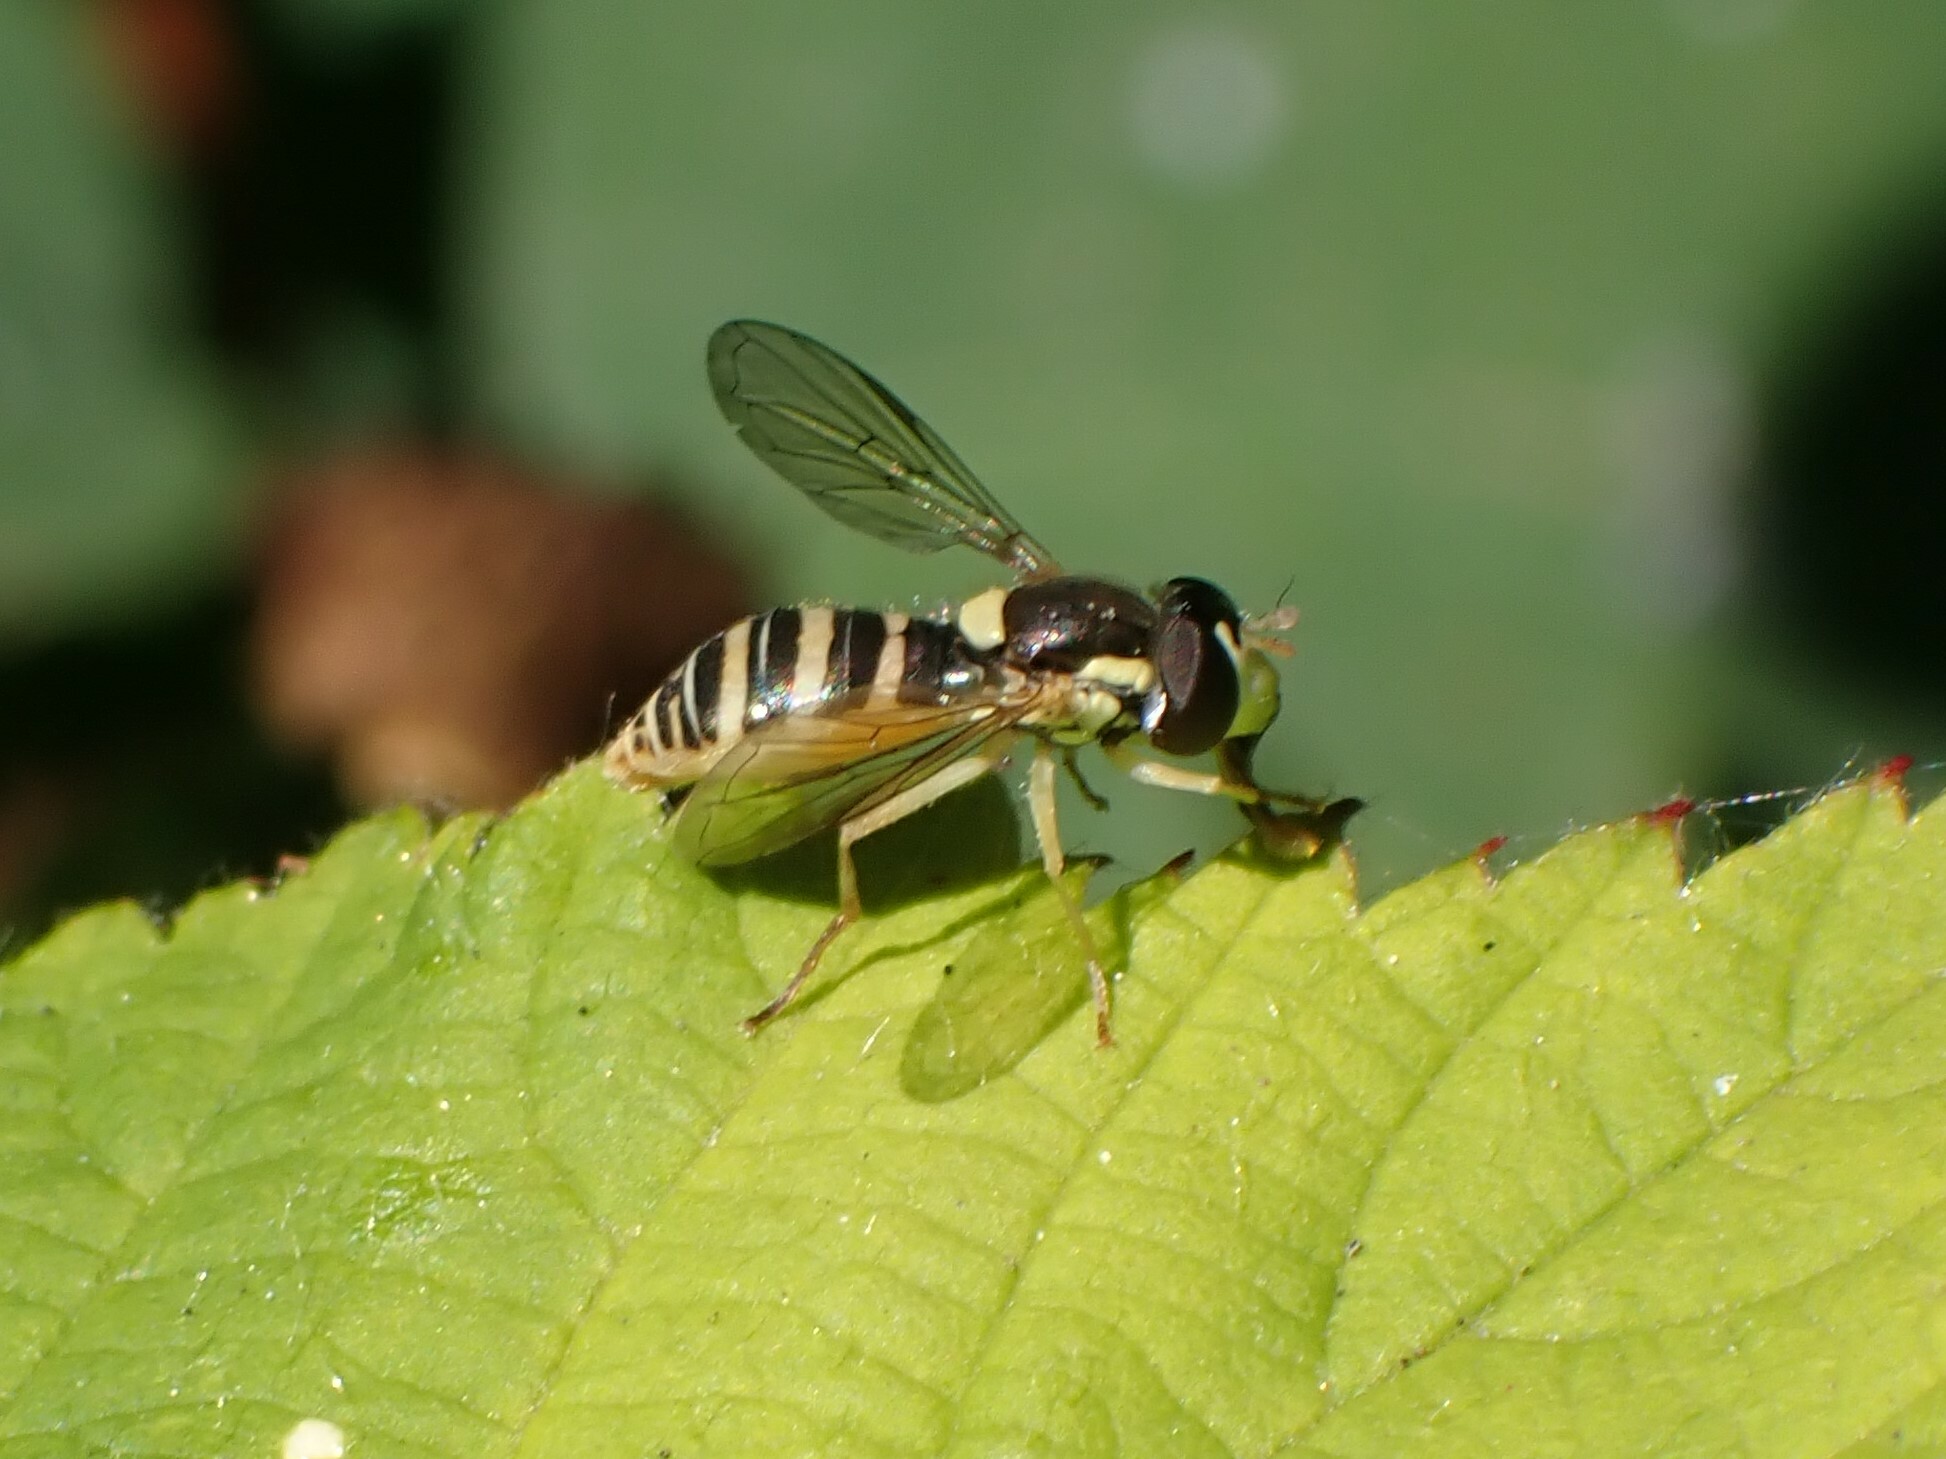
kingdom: Animalia
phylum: Arthropoda
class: Insecta
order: Diptera
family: Syrphidae
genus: Sphaerophoria
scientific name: Sphaerophoria sulphuripes
